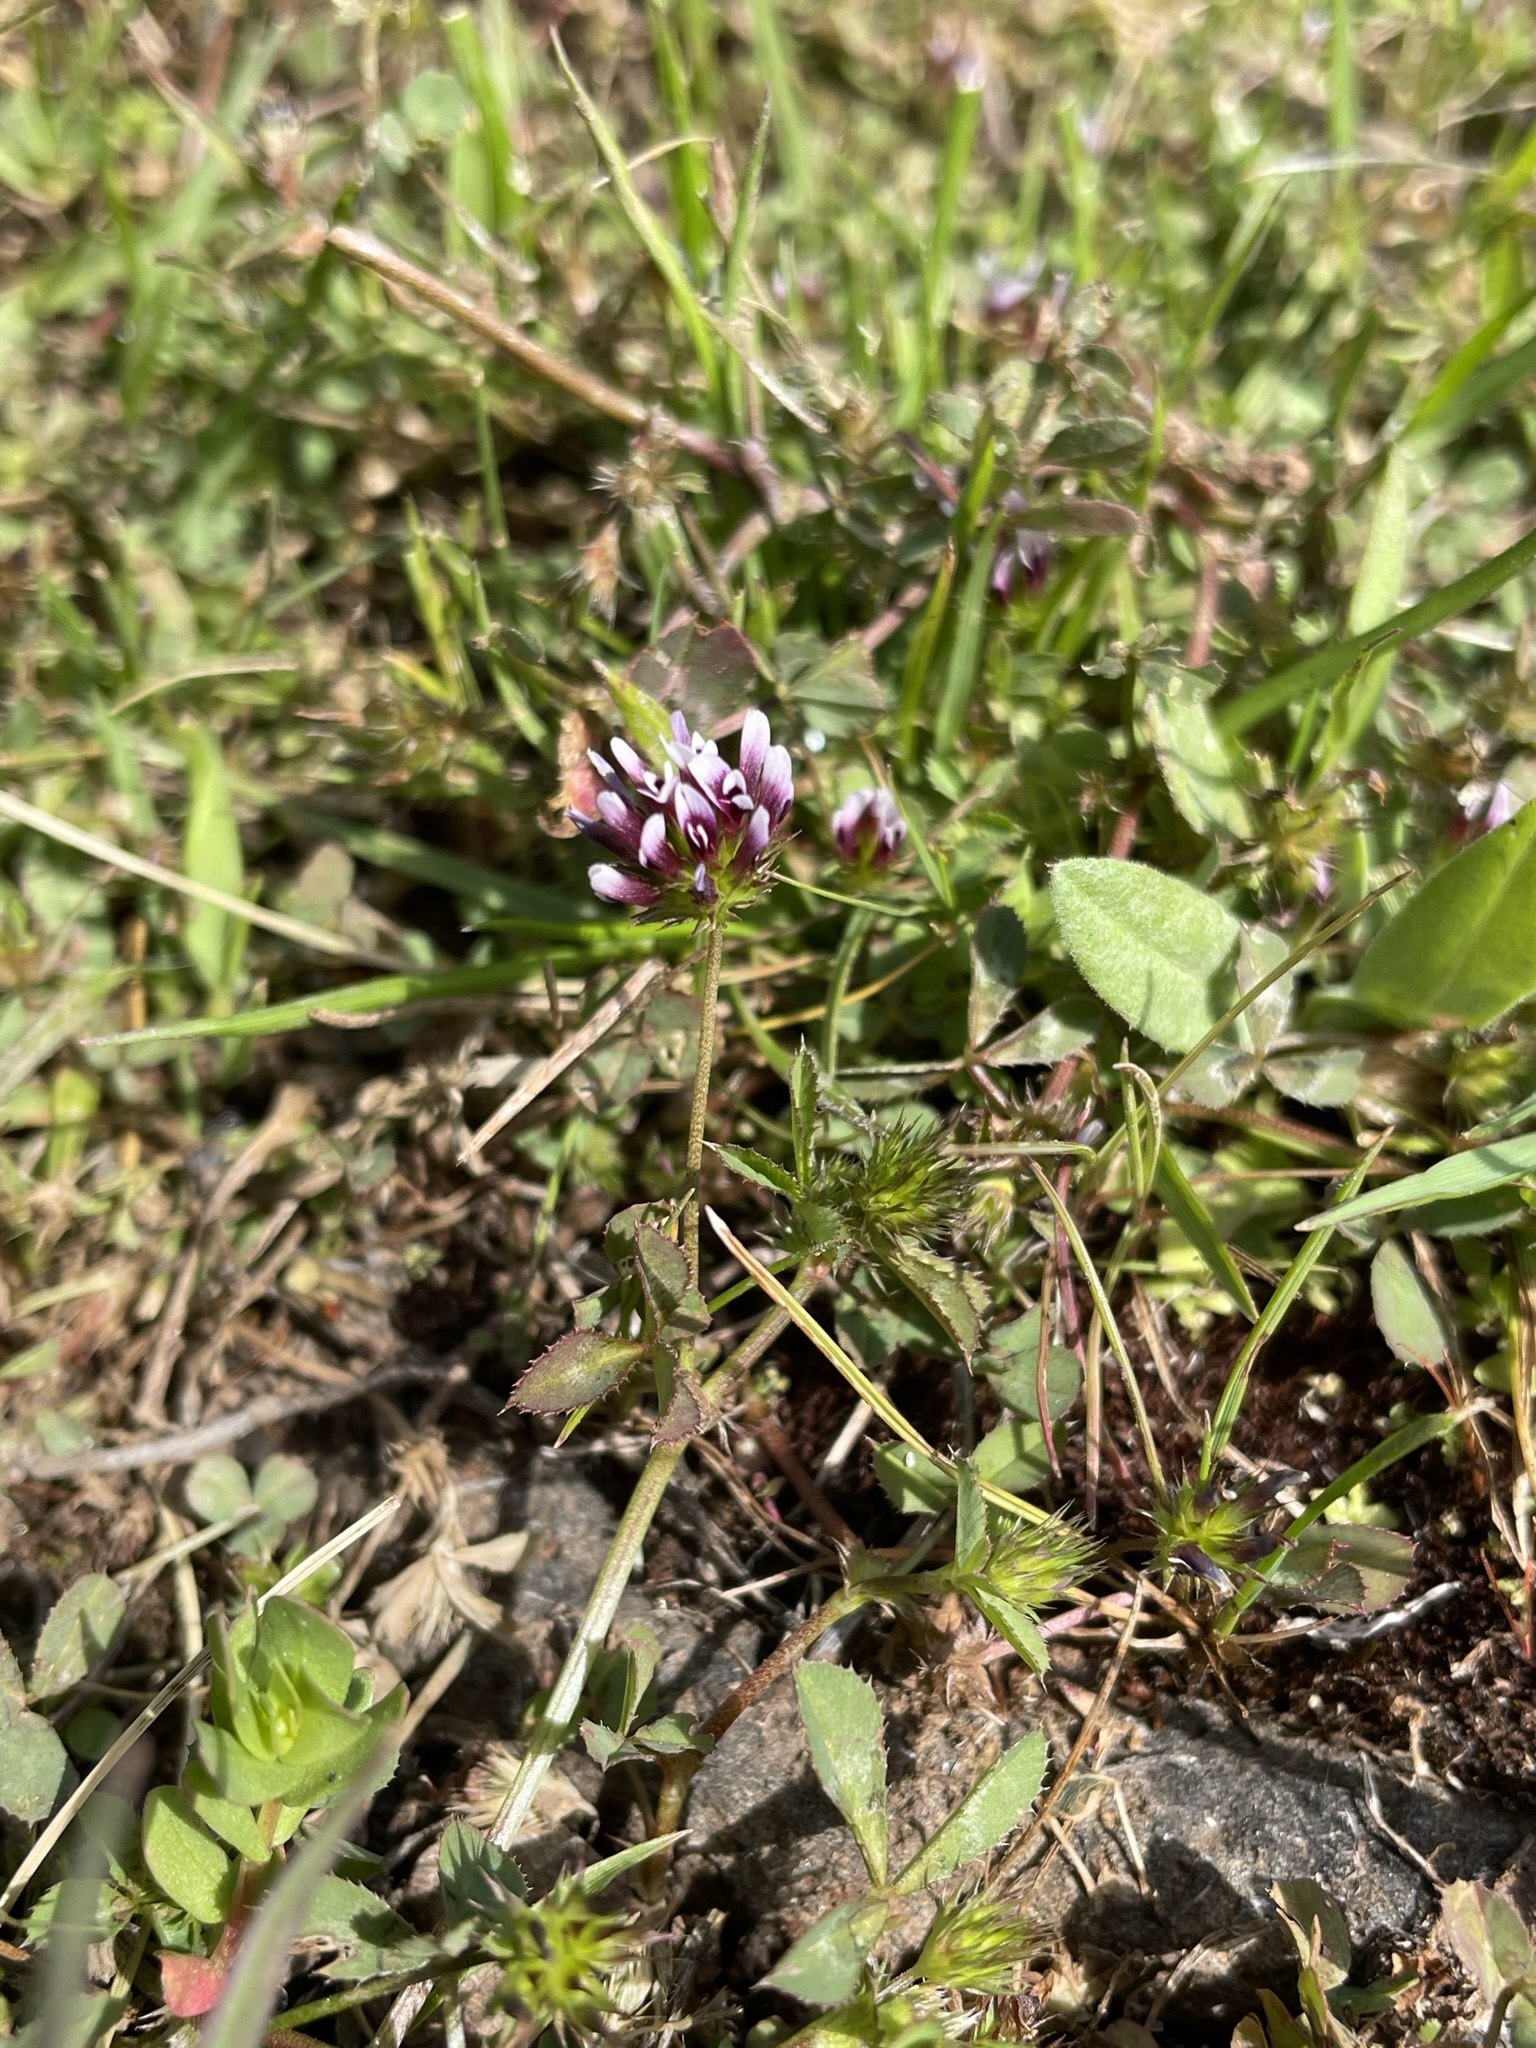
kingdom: Plantae
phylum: Tracheophyta
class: Magnoliopsida
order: Fabales
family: Fabaceae
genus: Trifolium
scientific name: Trifolium variegatum
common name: Whitetip clover
